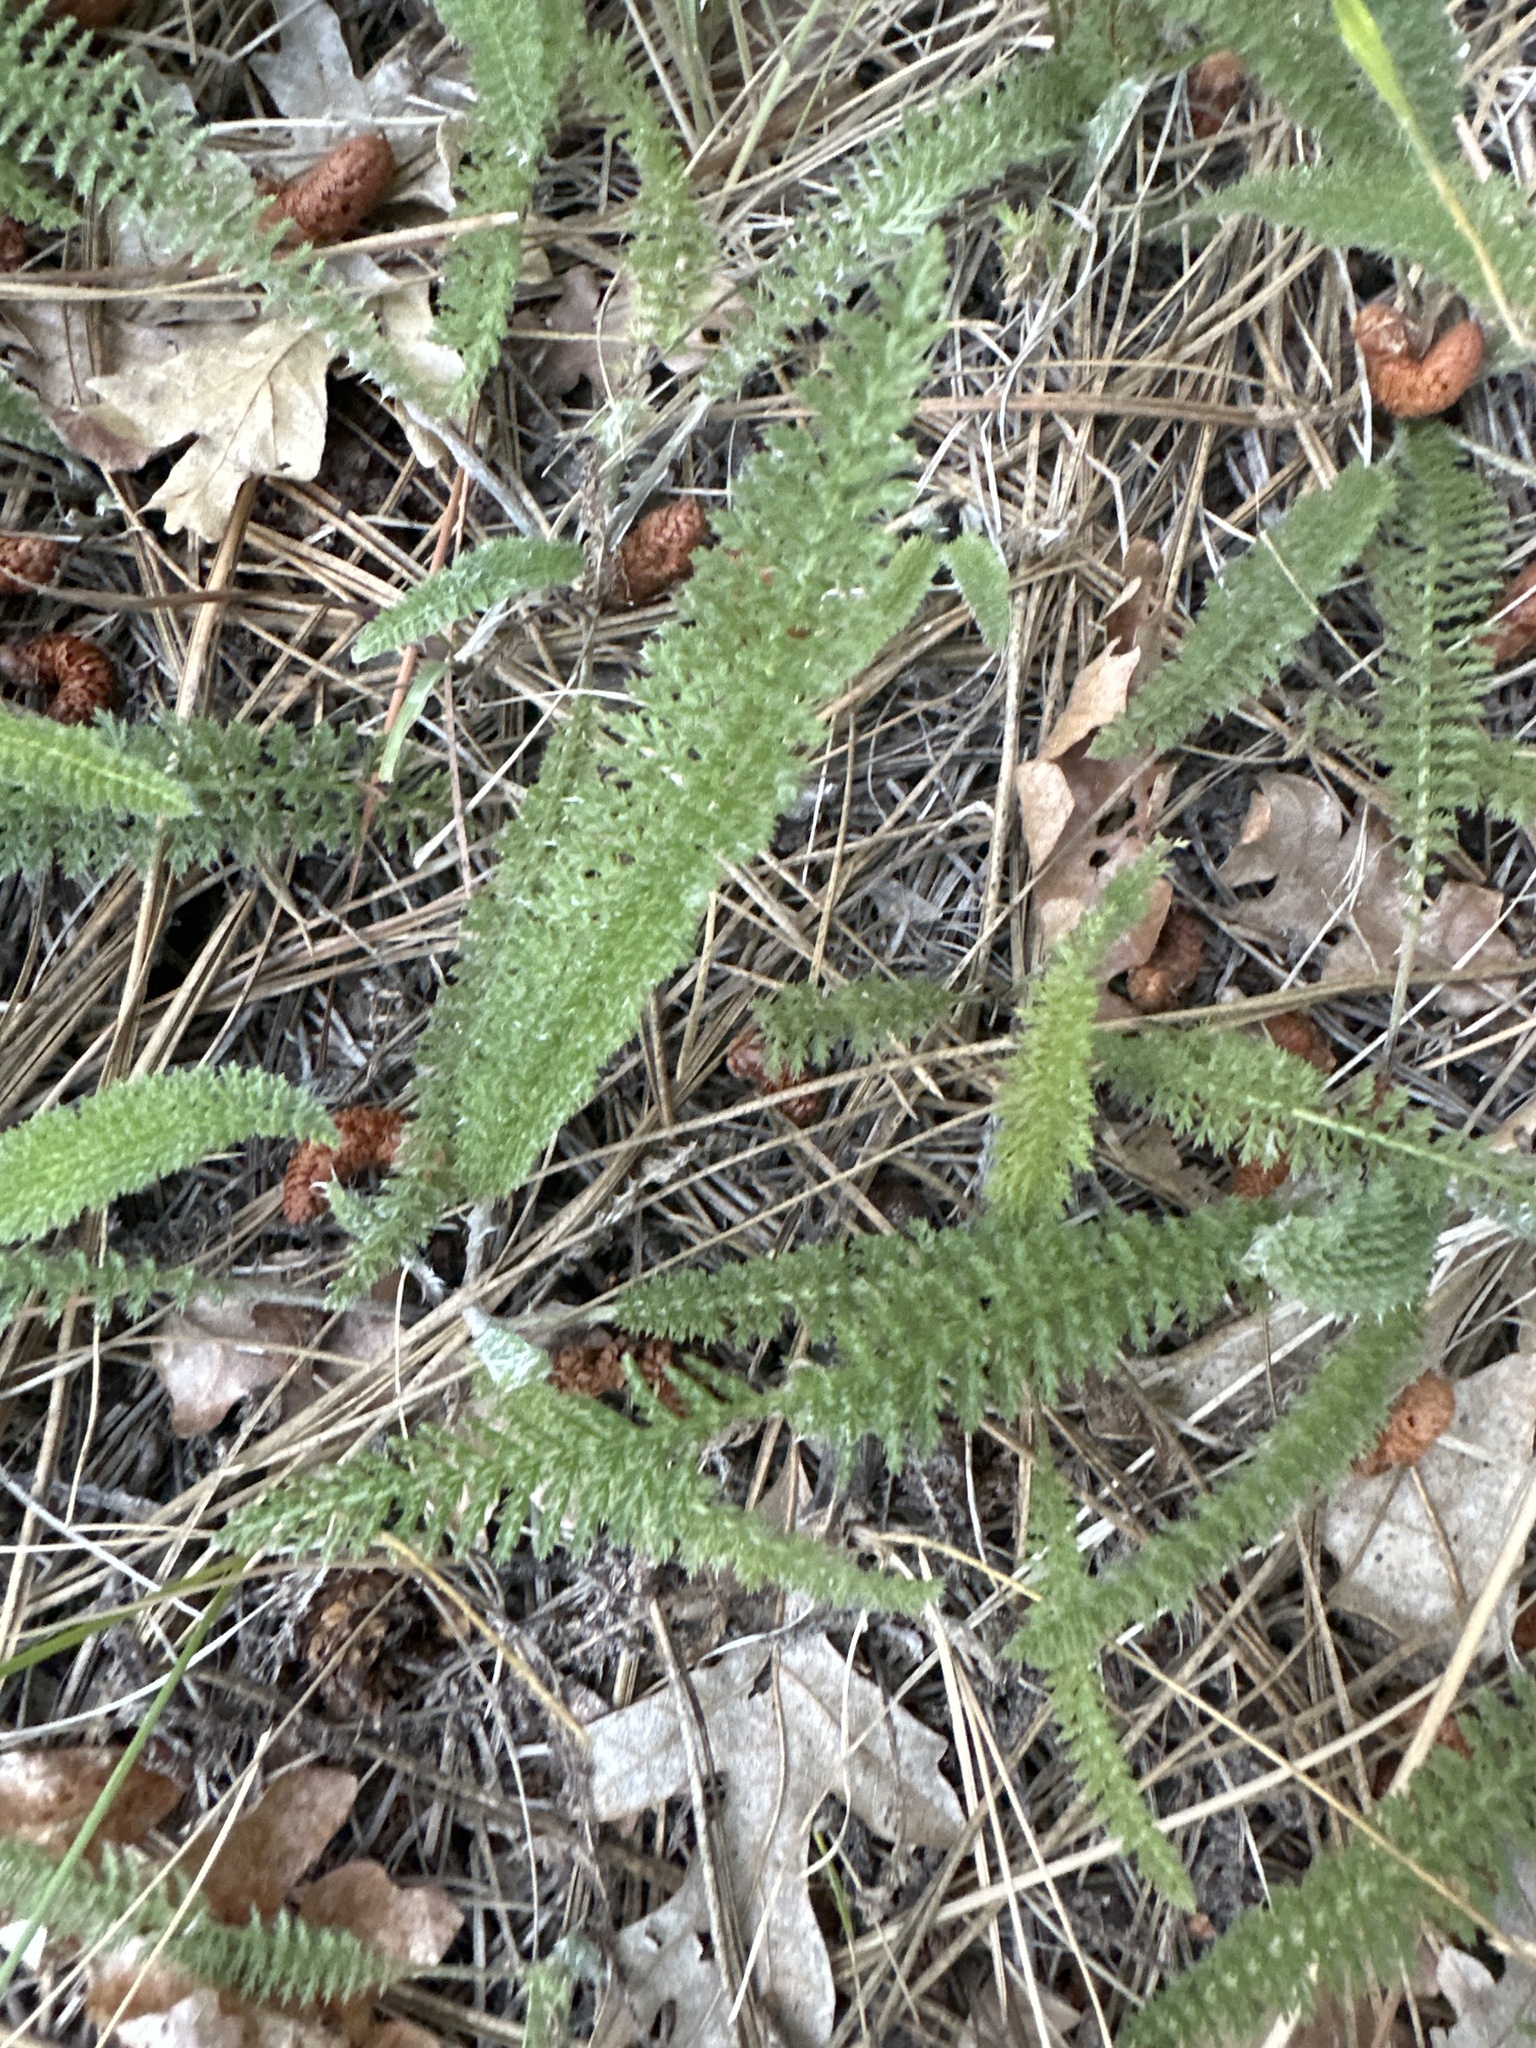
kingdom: Plantae
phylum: Tracheophyta
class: Magnoliopsida
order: Asterales
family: Asteraceae
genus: Achillea
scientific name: Achillea millefolium
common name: Yarrow
